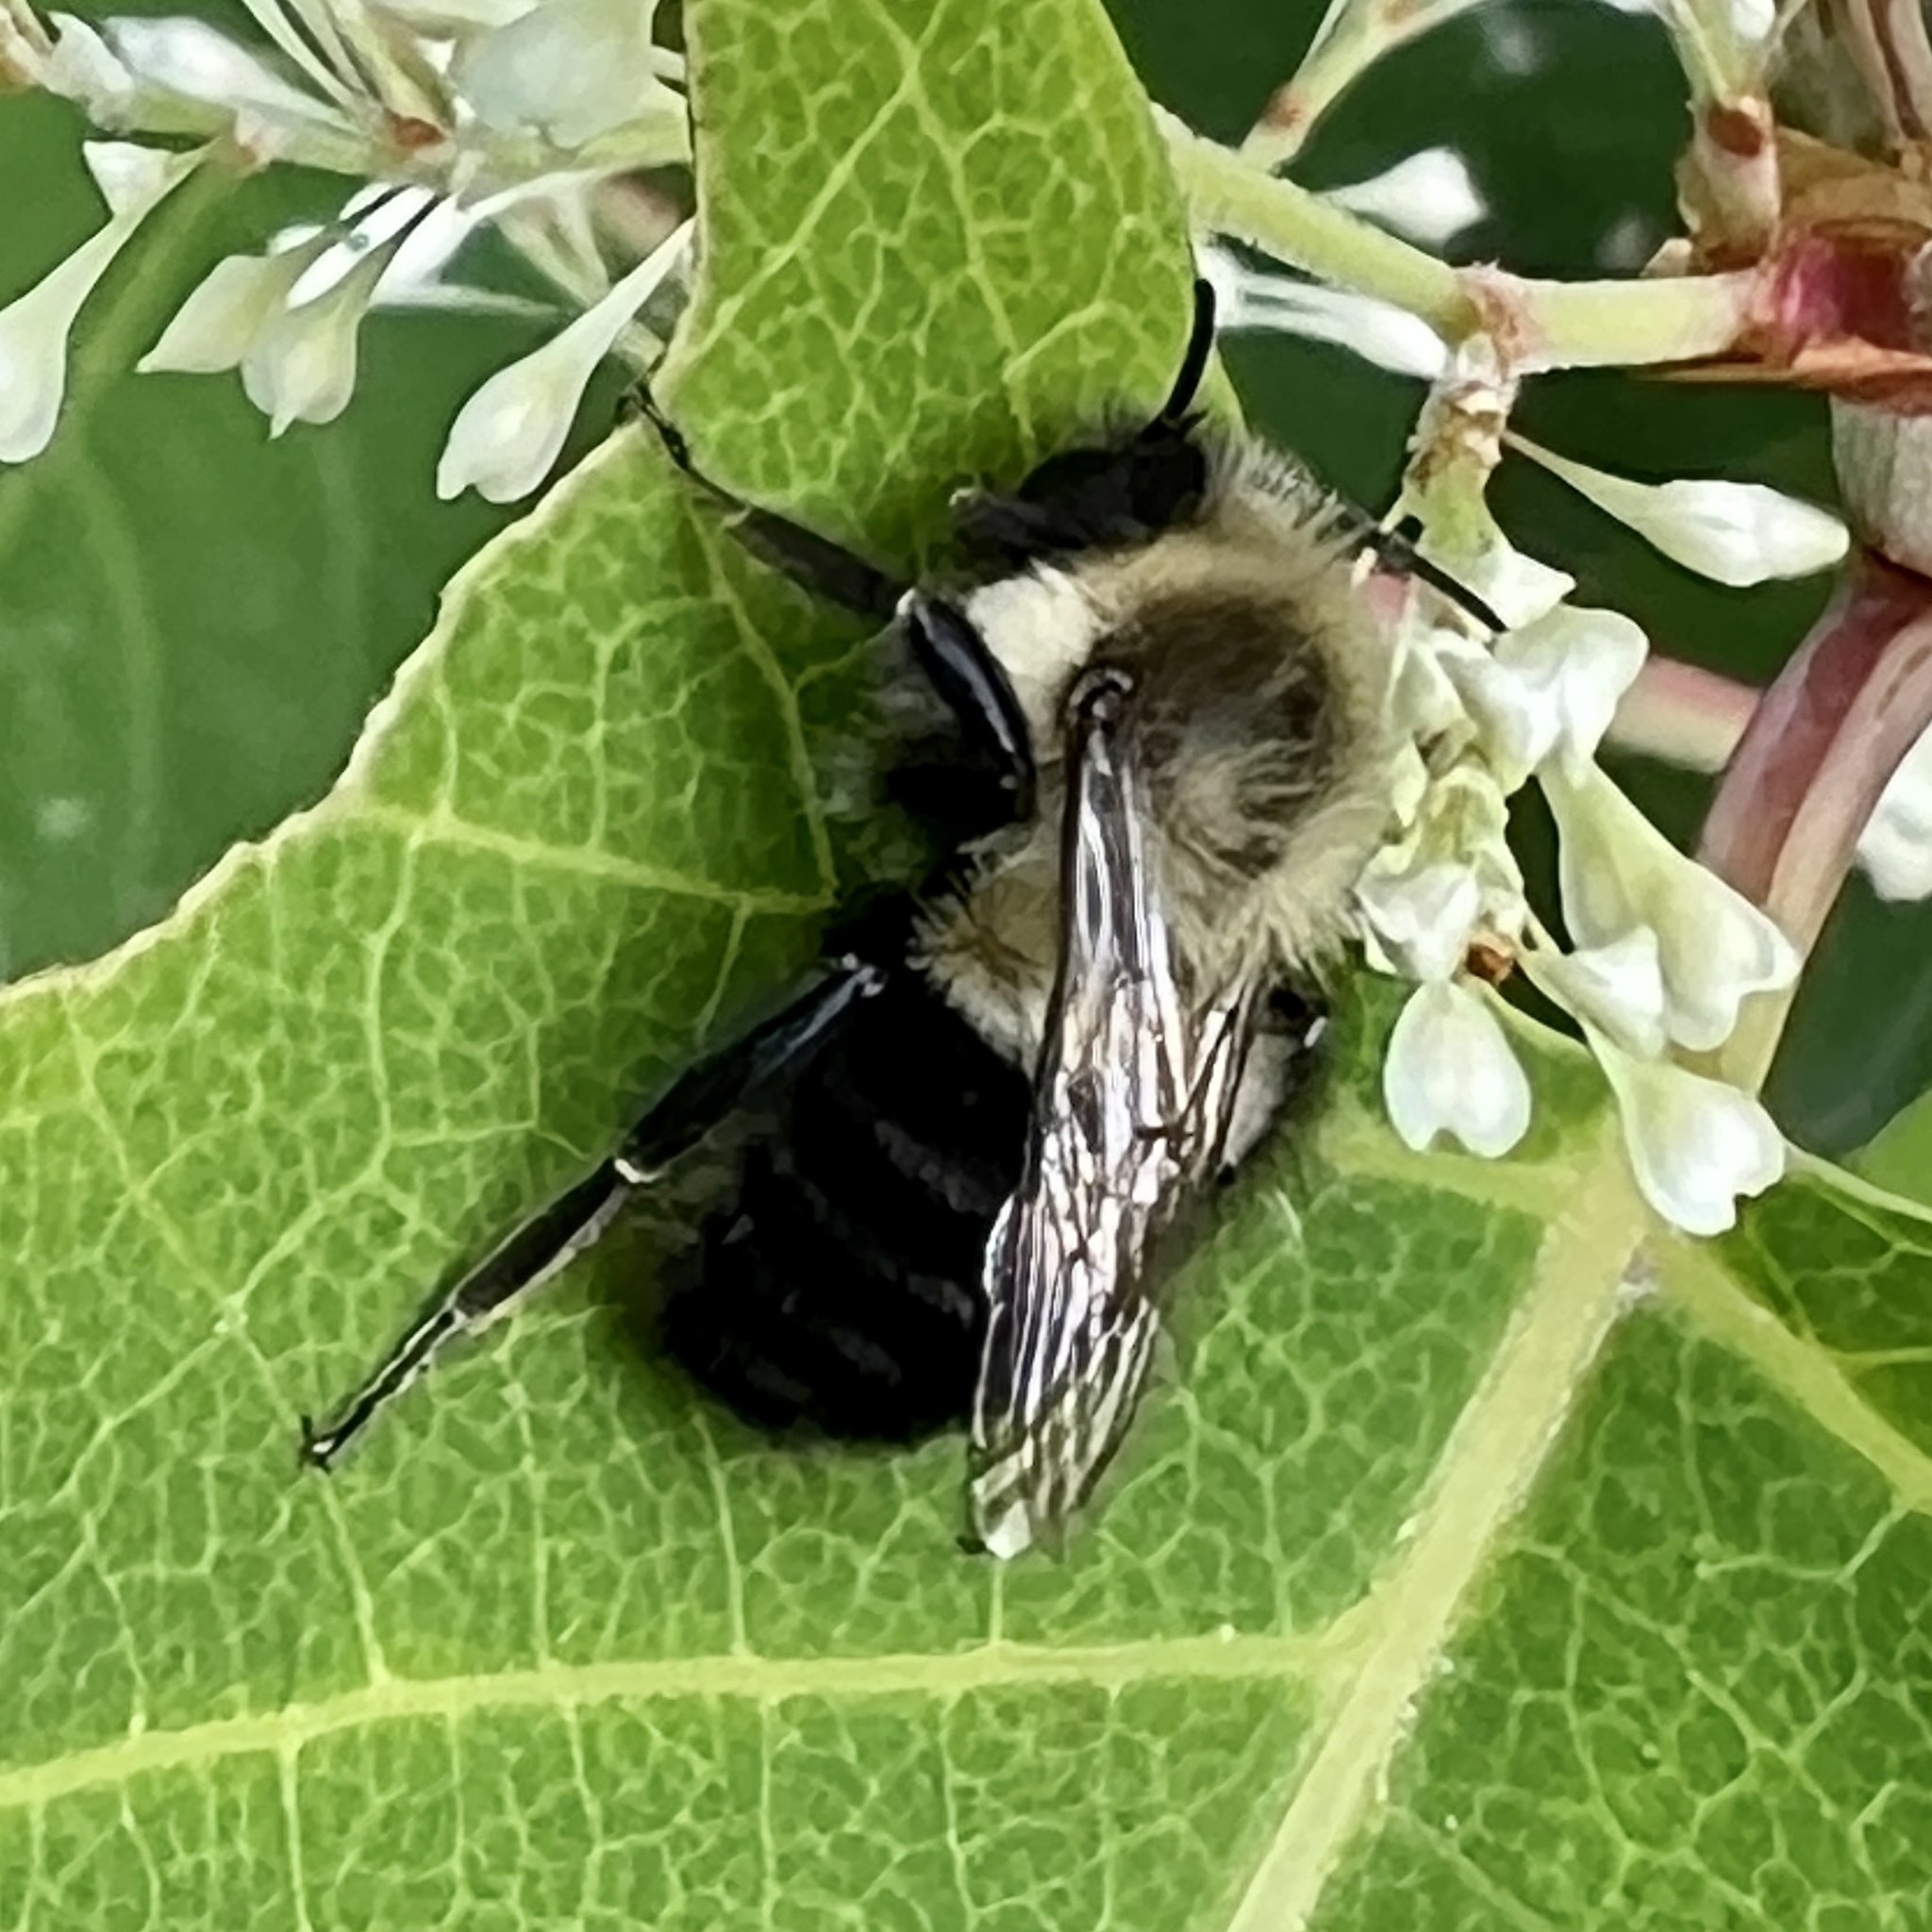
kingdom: Animalia
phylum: Arthropoda
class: Insecta
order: Hymenoptera
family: Apidae
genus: Bombus
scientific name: Bombus impatiens
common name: Common eastern bumble bee
